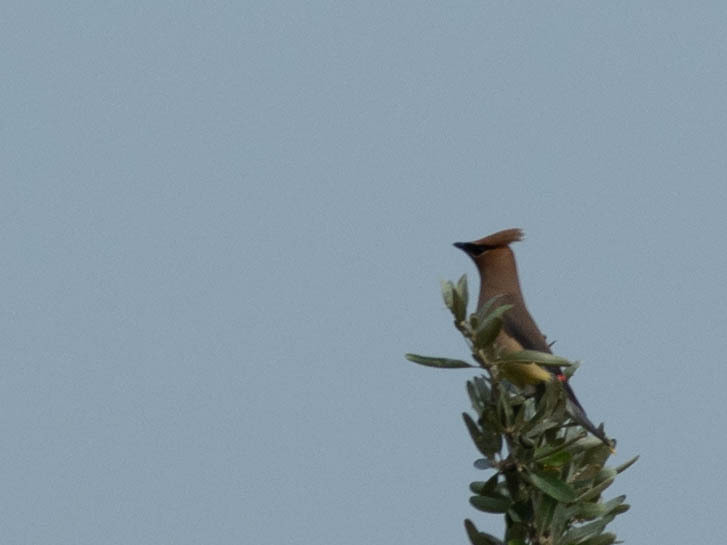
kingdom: Animalia
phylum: Chordata
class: Aves
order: Passeriformes
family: Bombycillidae
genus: Bombycilla
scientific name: Bombycilla cedrorum
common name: Cedar waxwing
